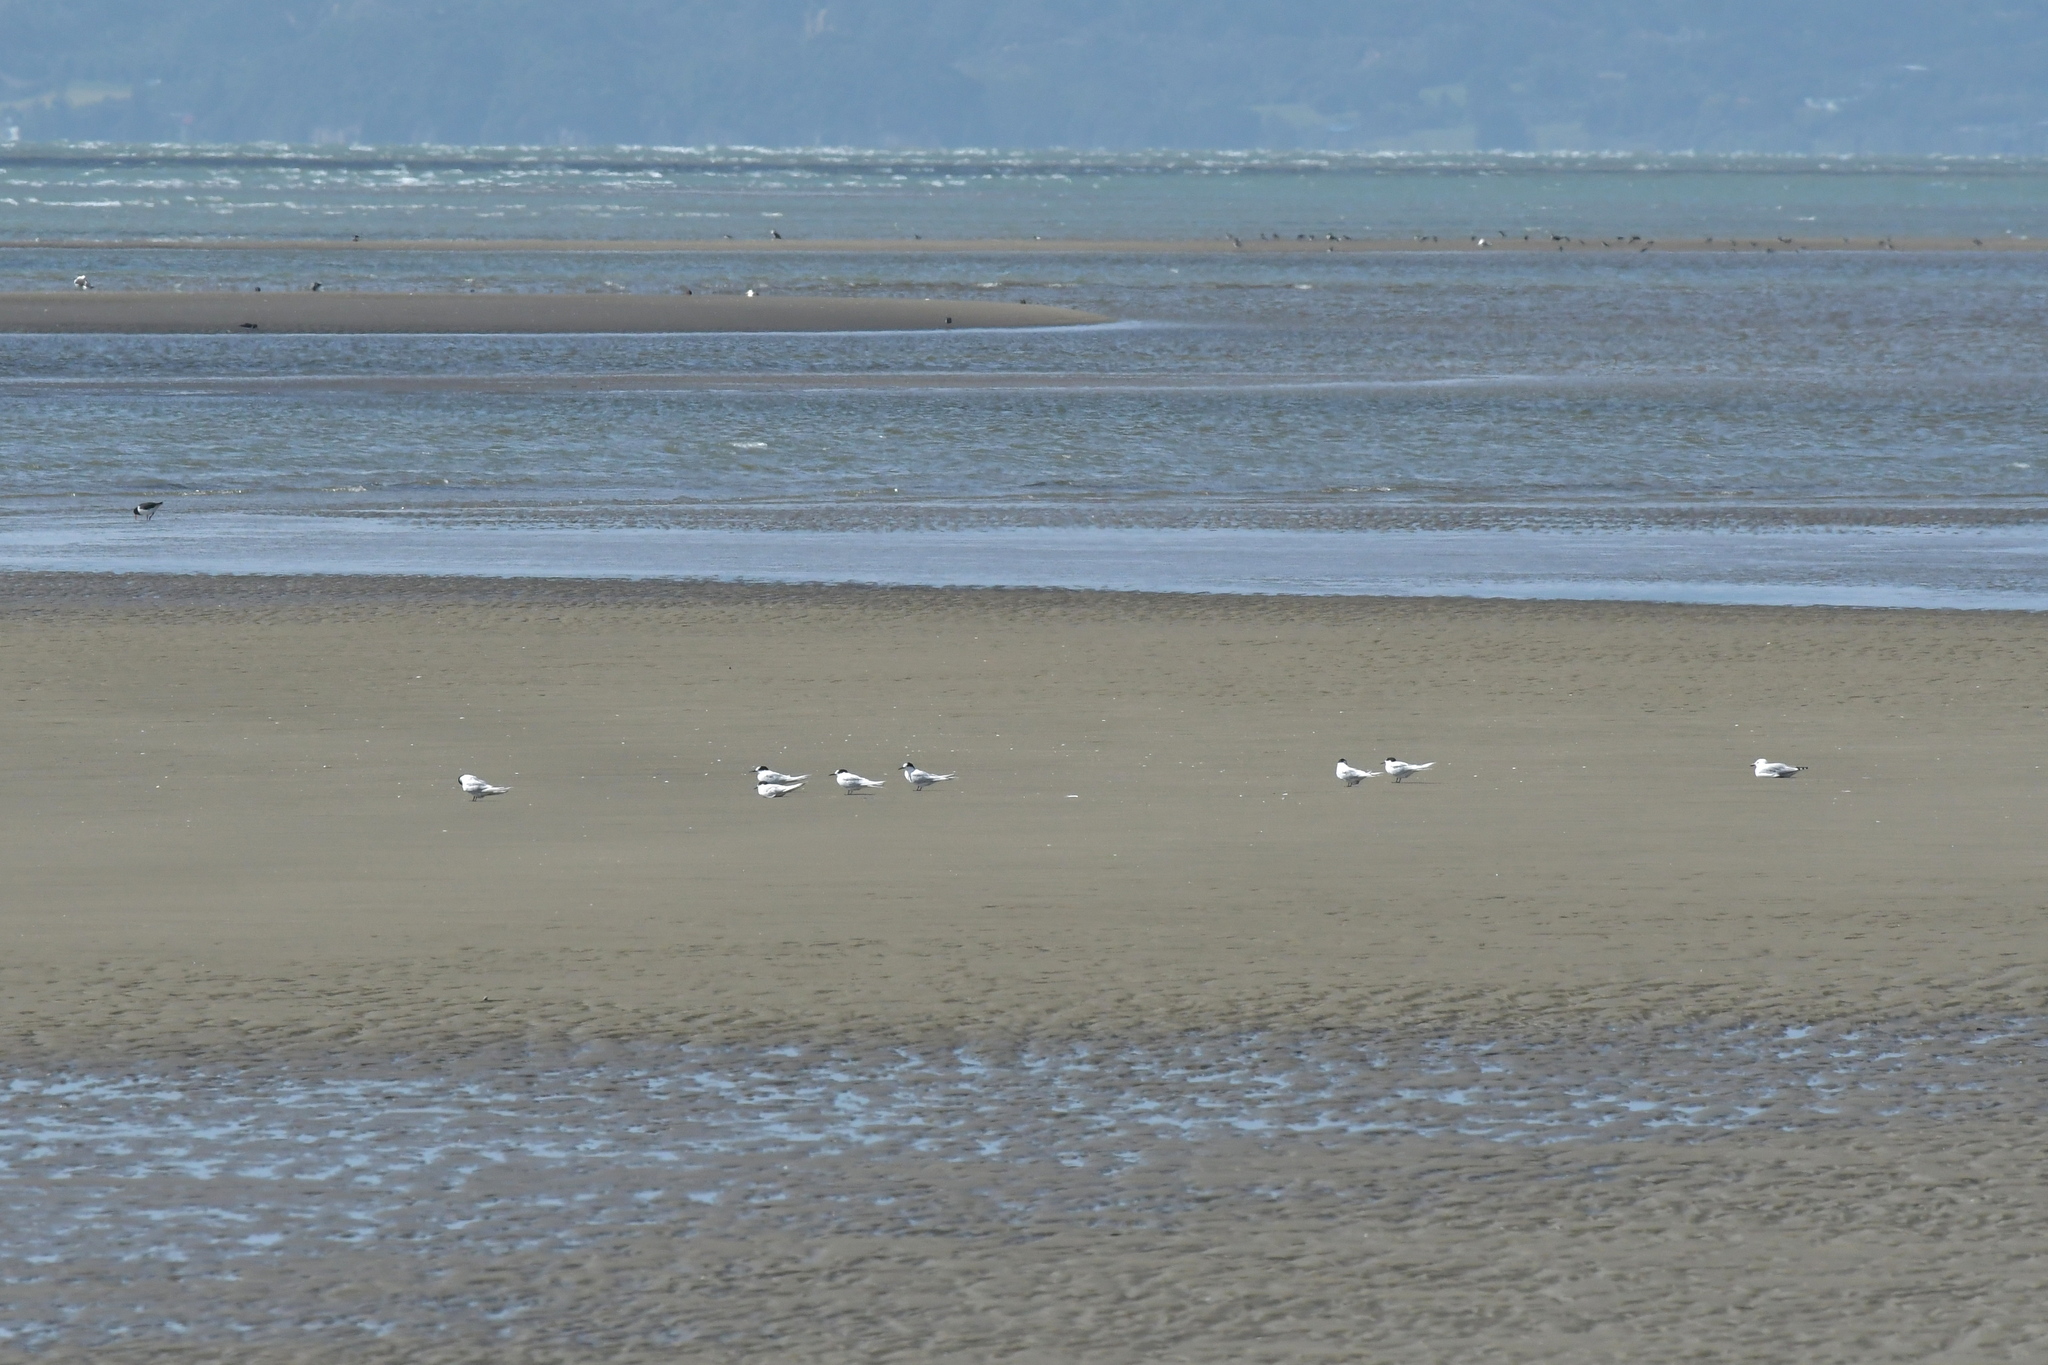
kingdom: Animalia
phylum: Chordata
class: Aves
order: Charadriiformes
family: Laridae
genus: Sterna
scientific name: Sterna striata
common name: White-fronted tern
